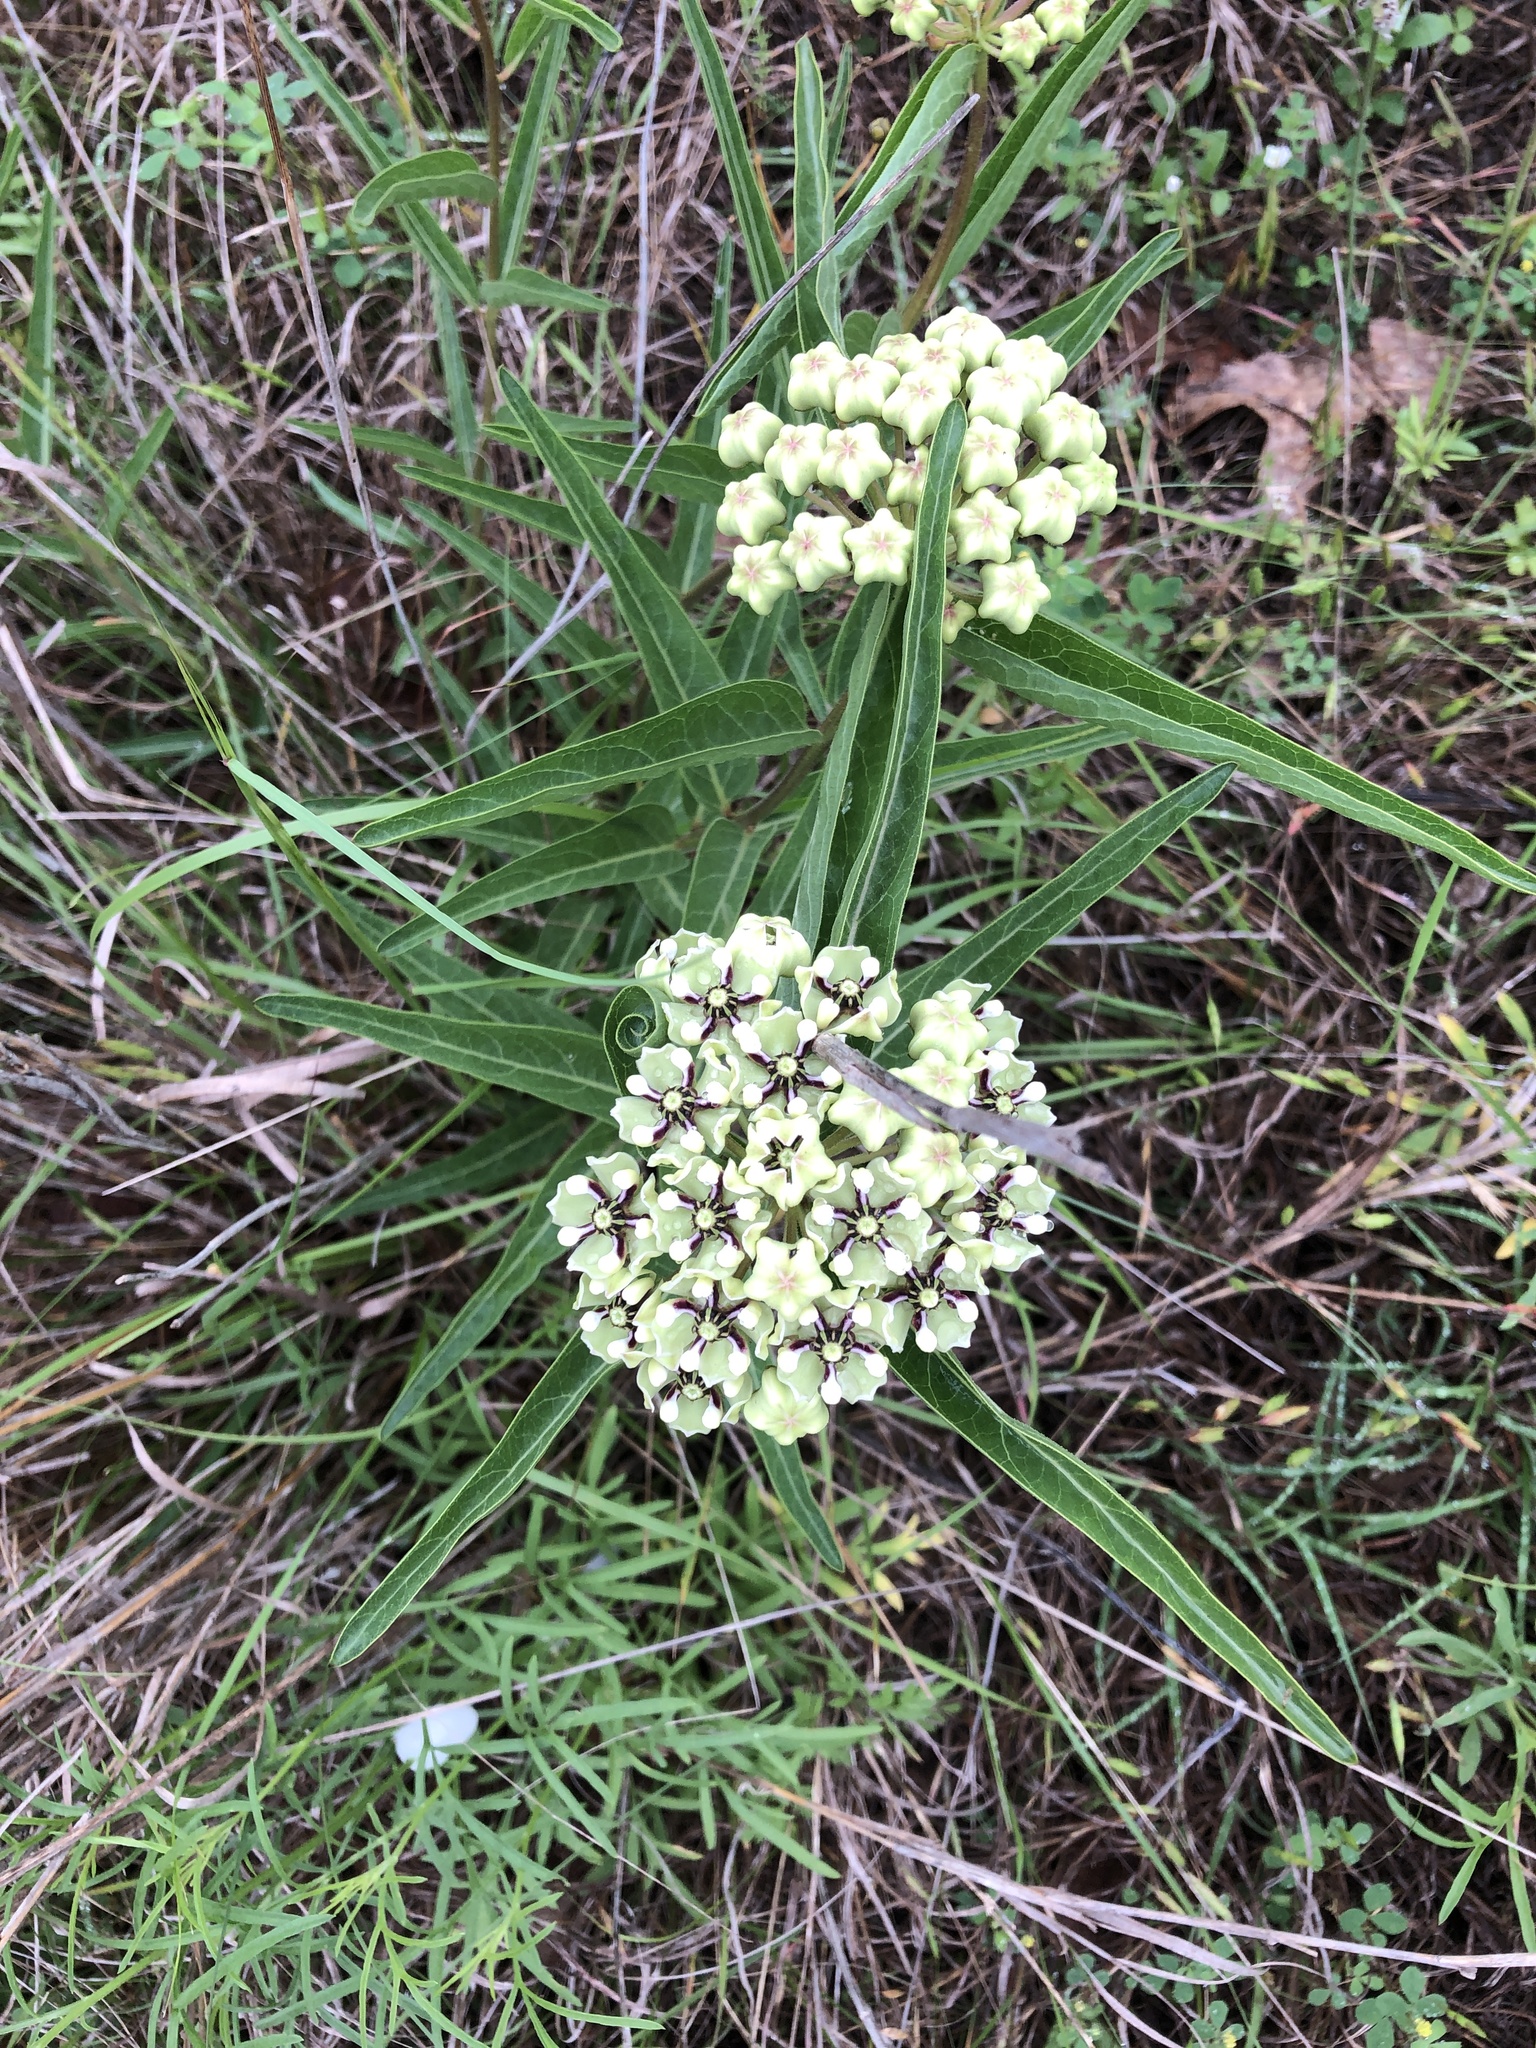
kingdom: Plantae
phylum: Tracheophyta
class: Magnoliopsida
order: Gentianales
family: Apocynaceae
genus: Asclepias
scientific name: Asclepias asperula
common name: Antelope horns
